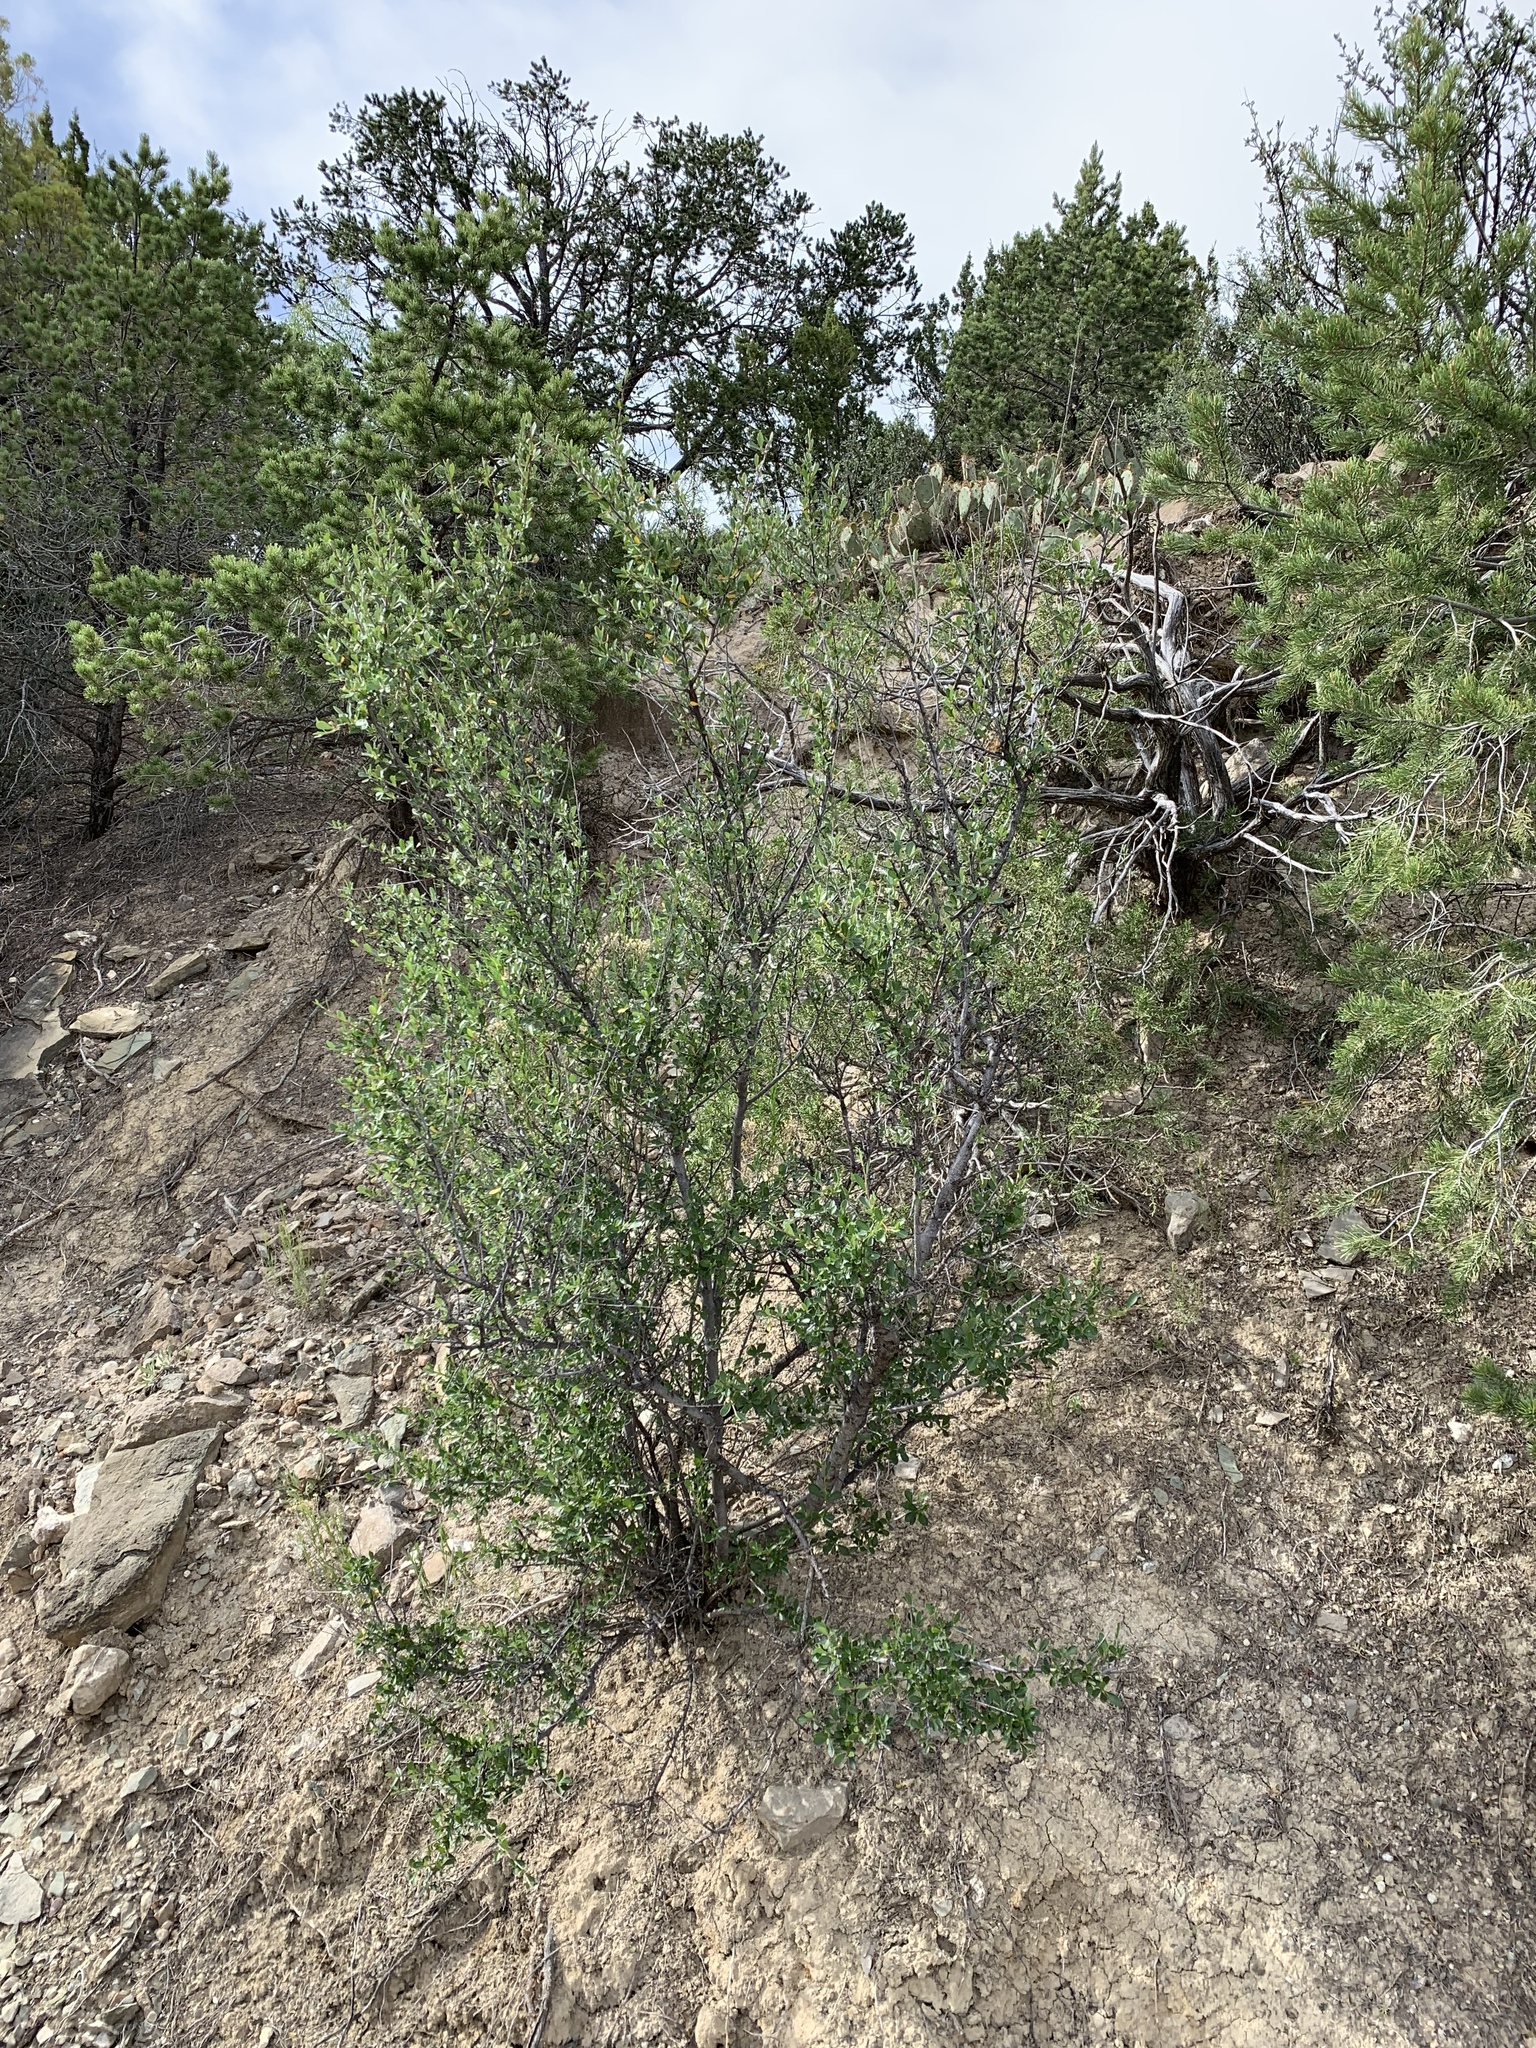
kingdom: Plantae
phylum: Tracheophyta
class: Magnoliopsida
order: Rosales
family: Rosaceae
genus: Cercocarpus
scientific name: Cercocarpus breviflorus
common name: Wright's mountain-mahogany
